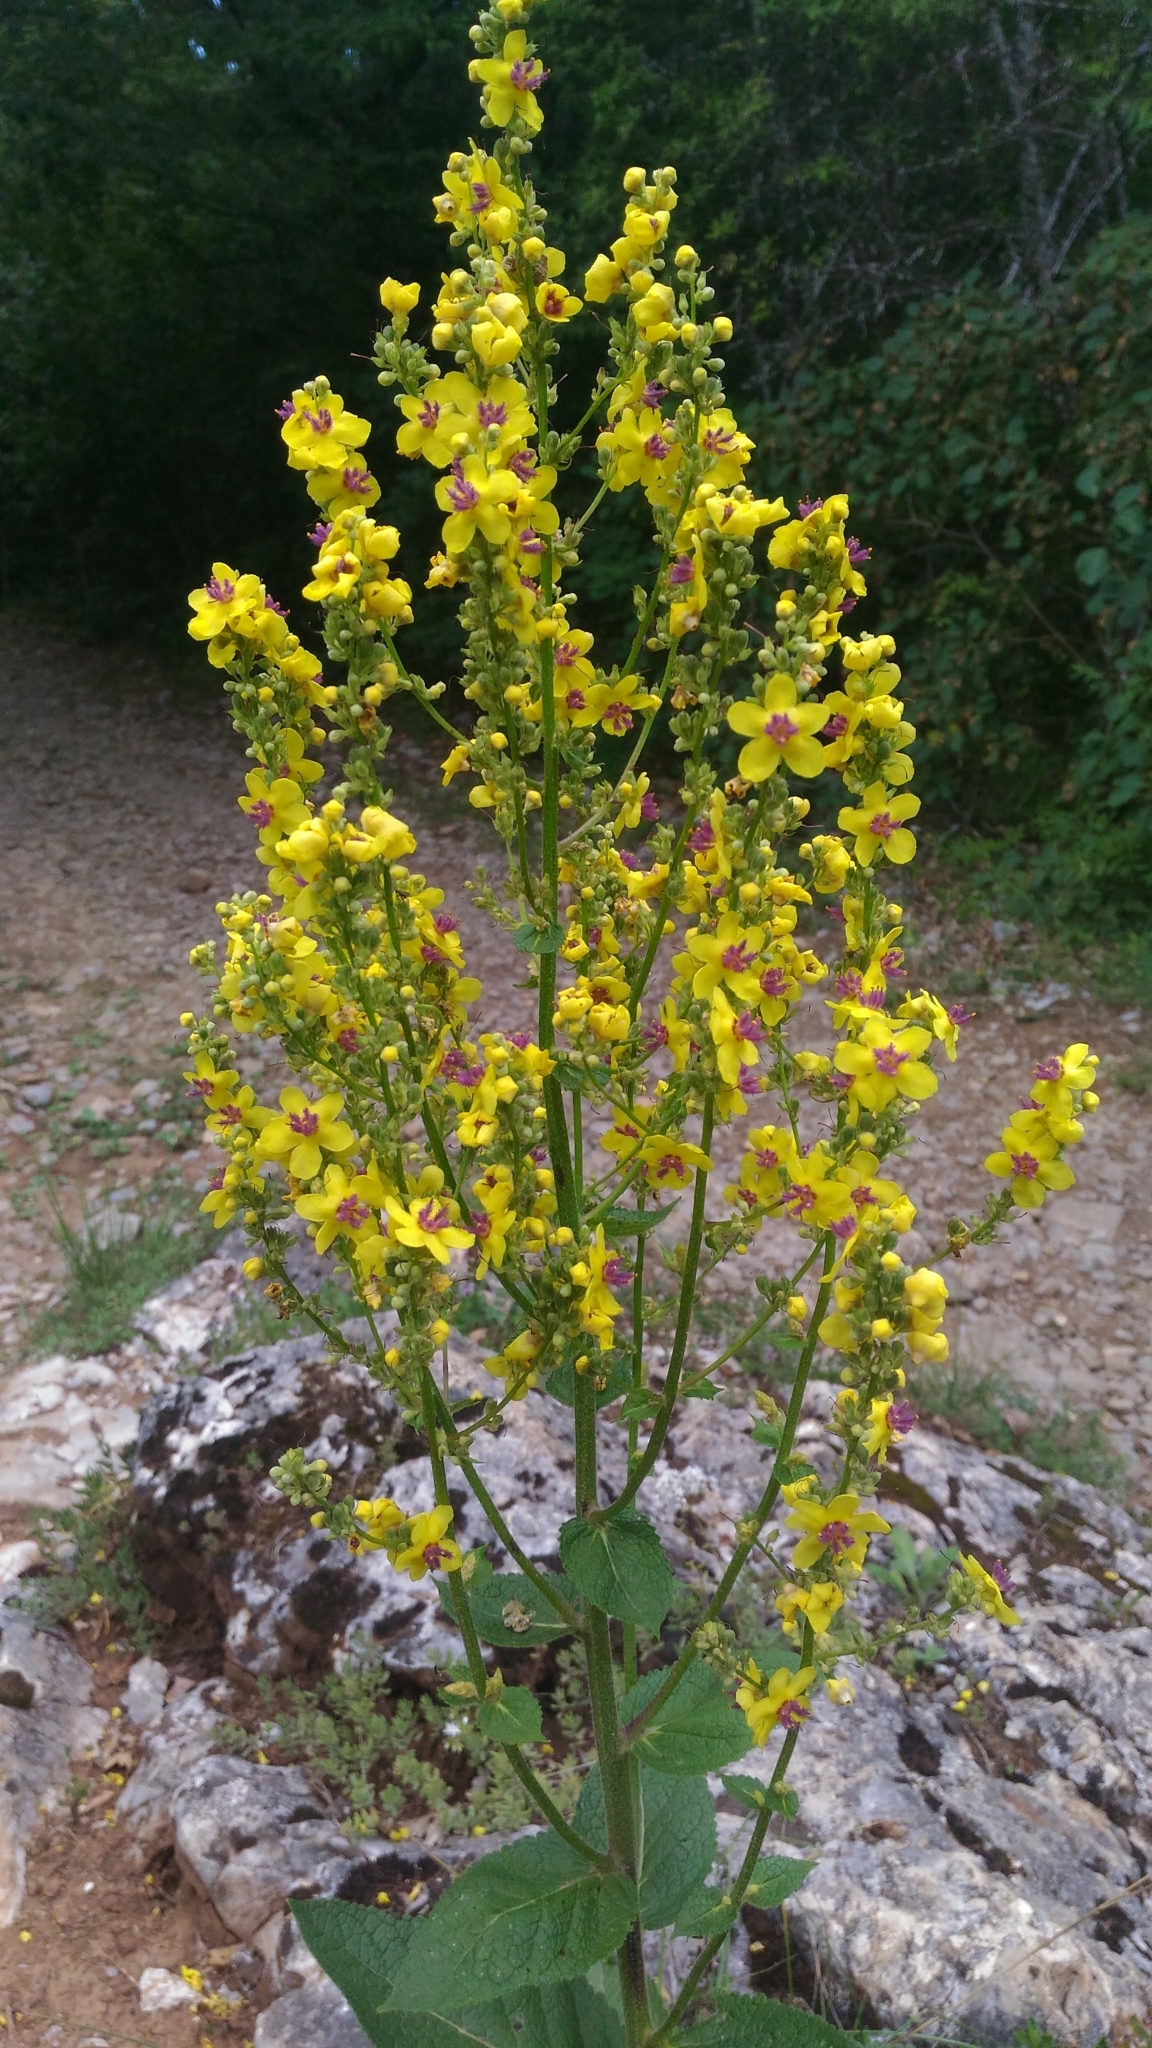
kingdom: Plantae
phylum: Tracheophyta
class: Magnoliopsida
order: Lamiales
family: Scrophulariaceae
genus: Verbascum
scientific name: Verbascum nigrum
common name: Dark mullein
